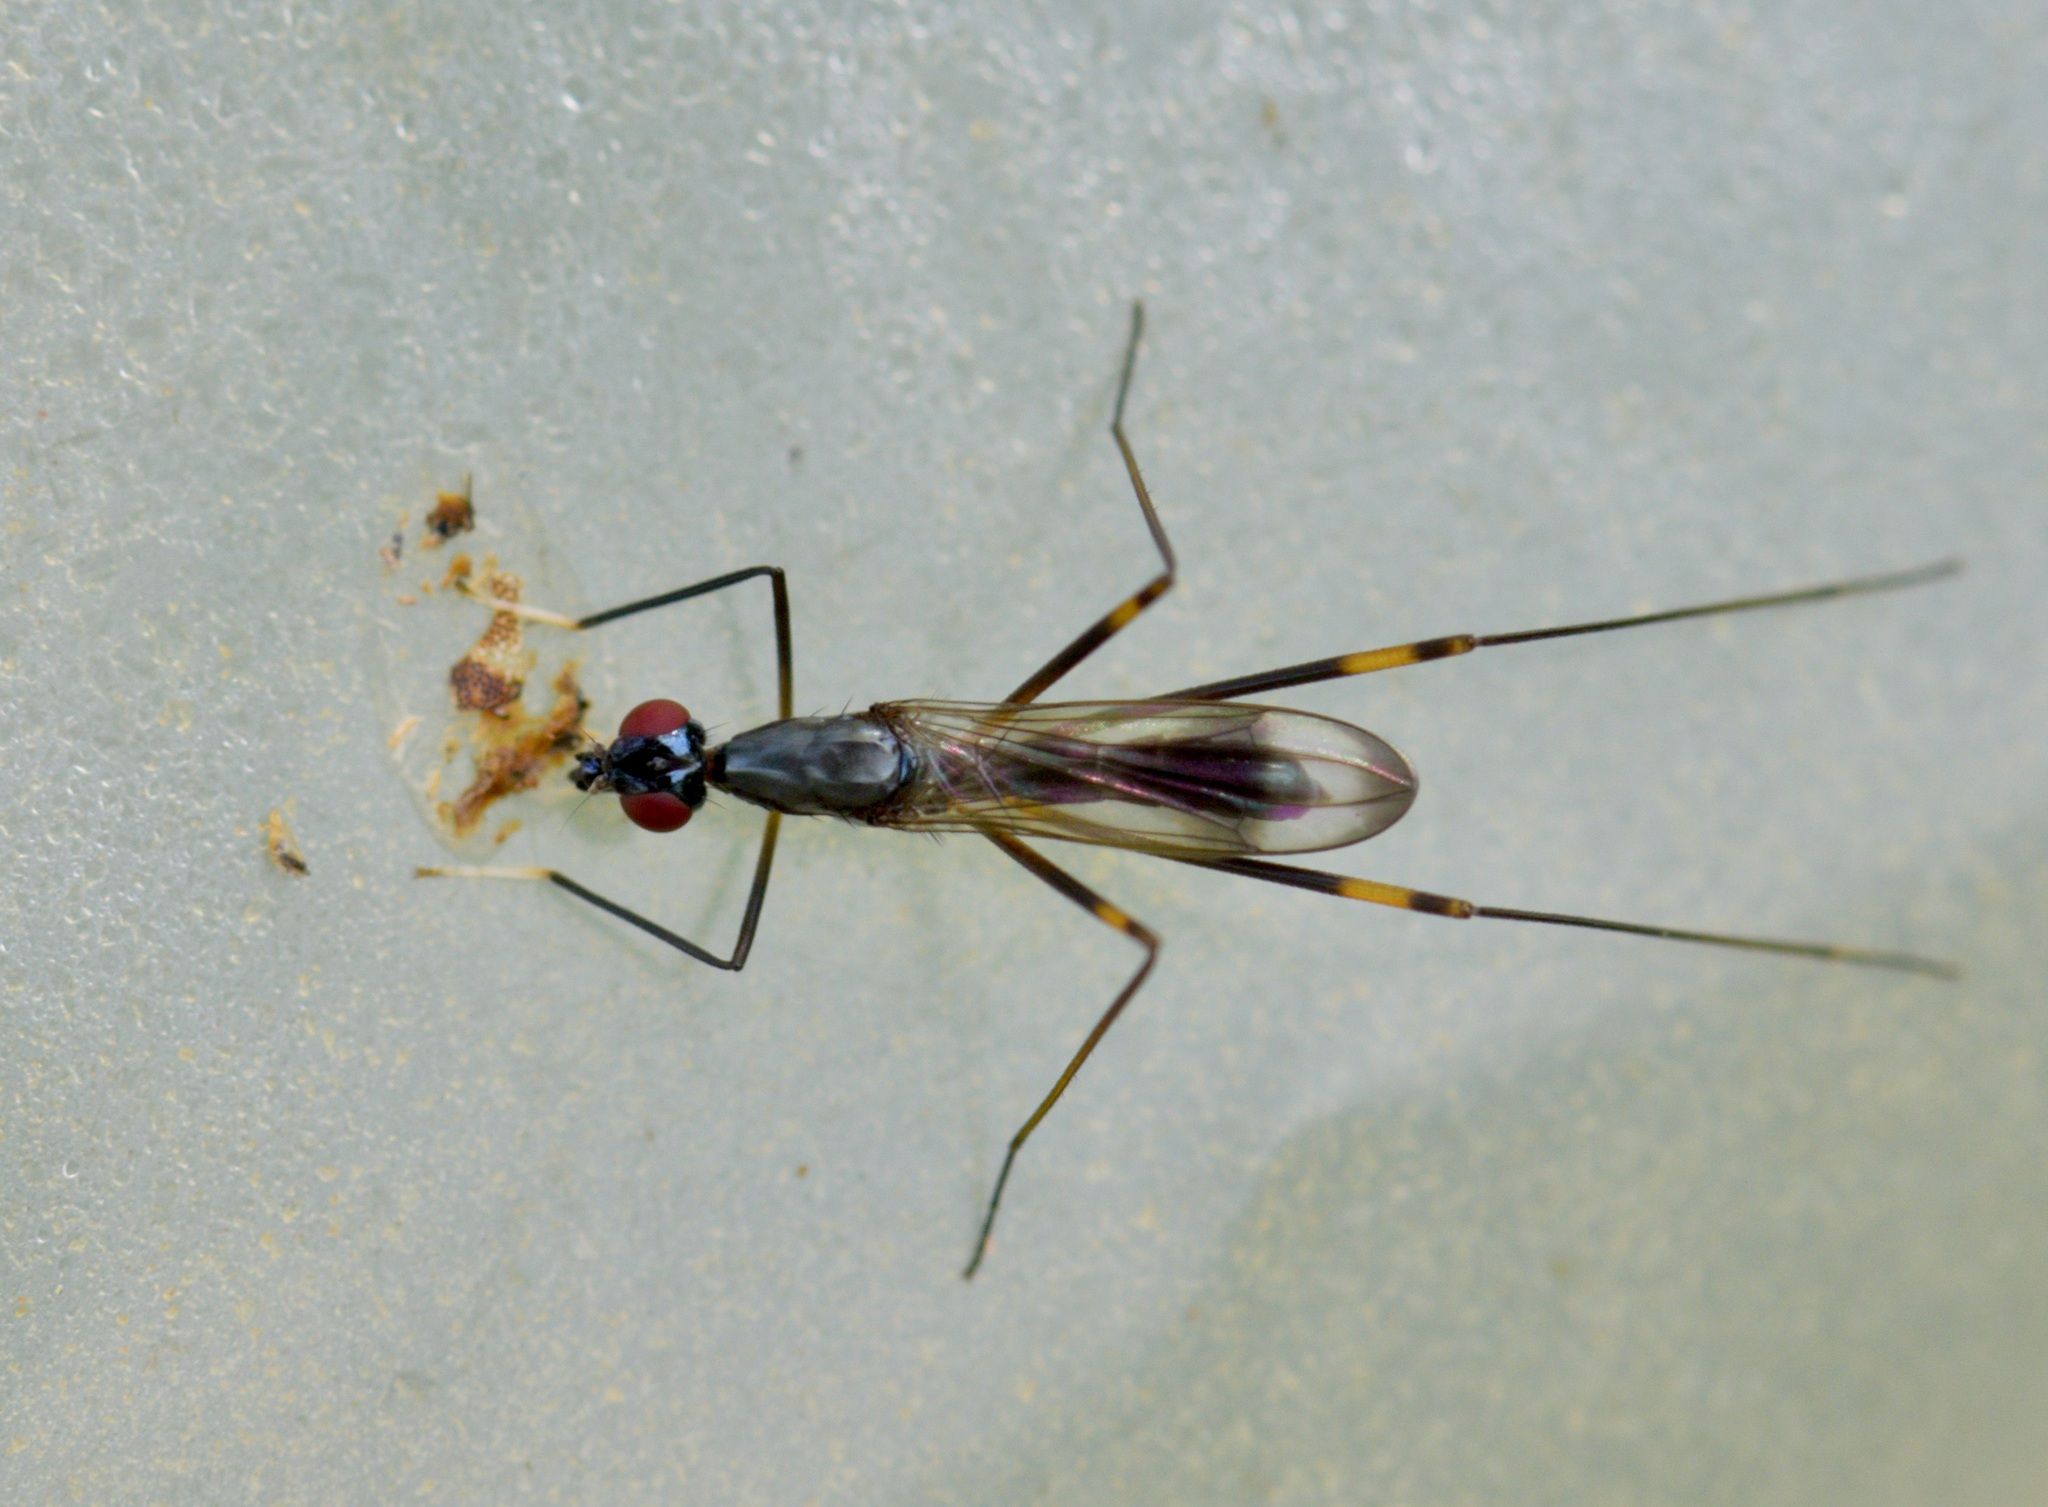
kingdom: Animalia
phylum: Arthropoda
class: Insecta
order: Diptera
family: Micropezidae
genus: Rainieria
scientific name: Rainieria antennaepes
